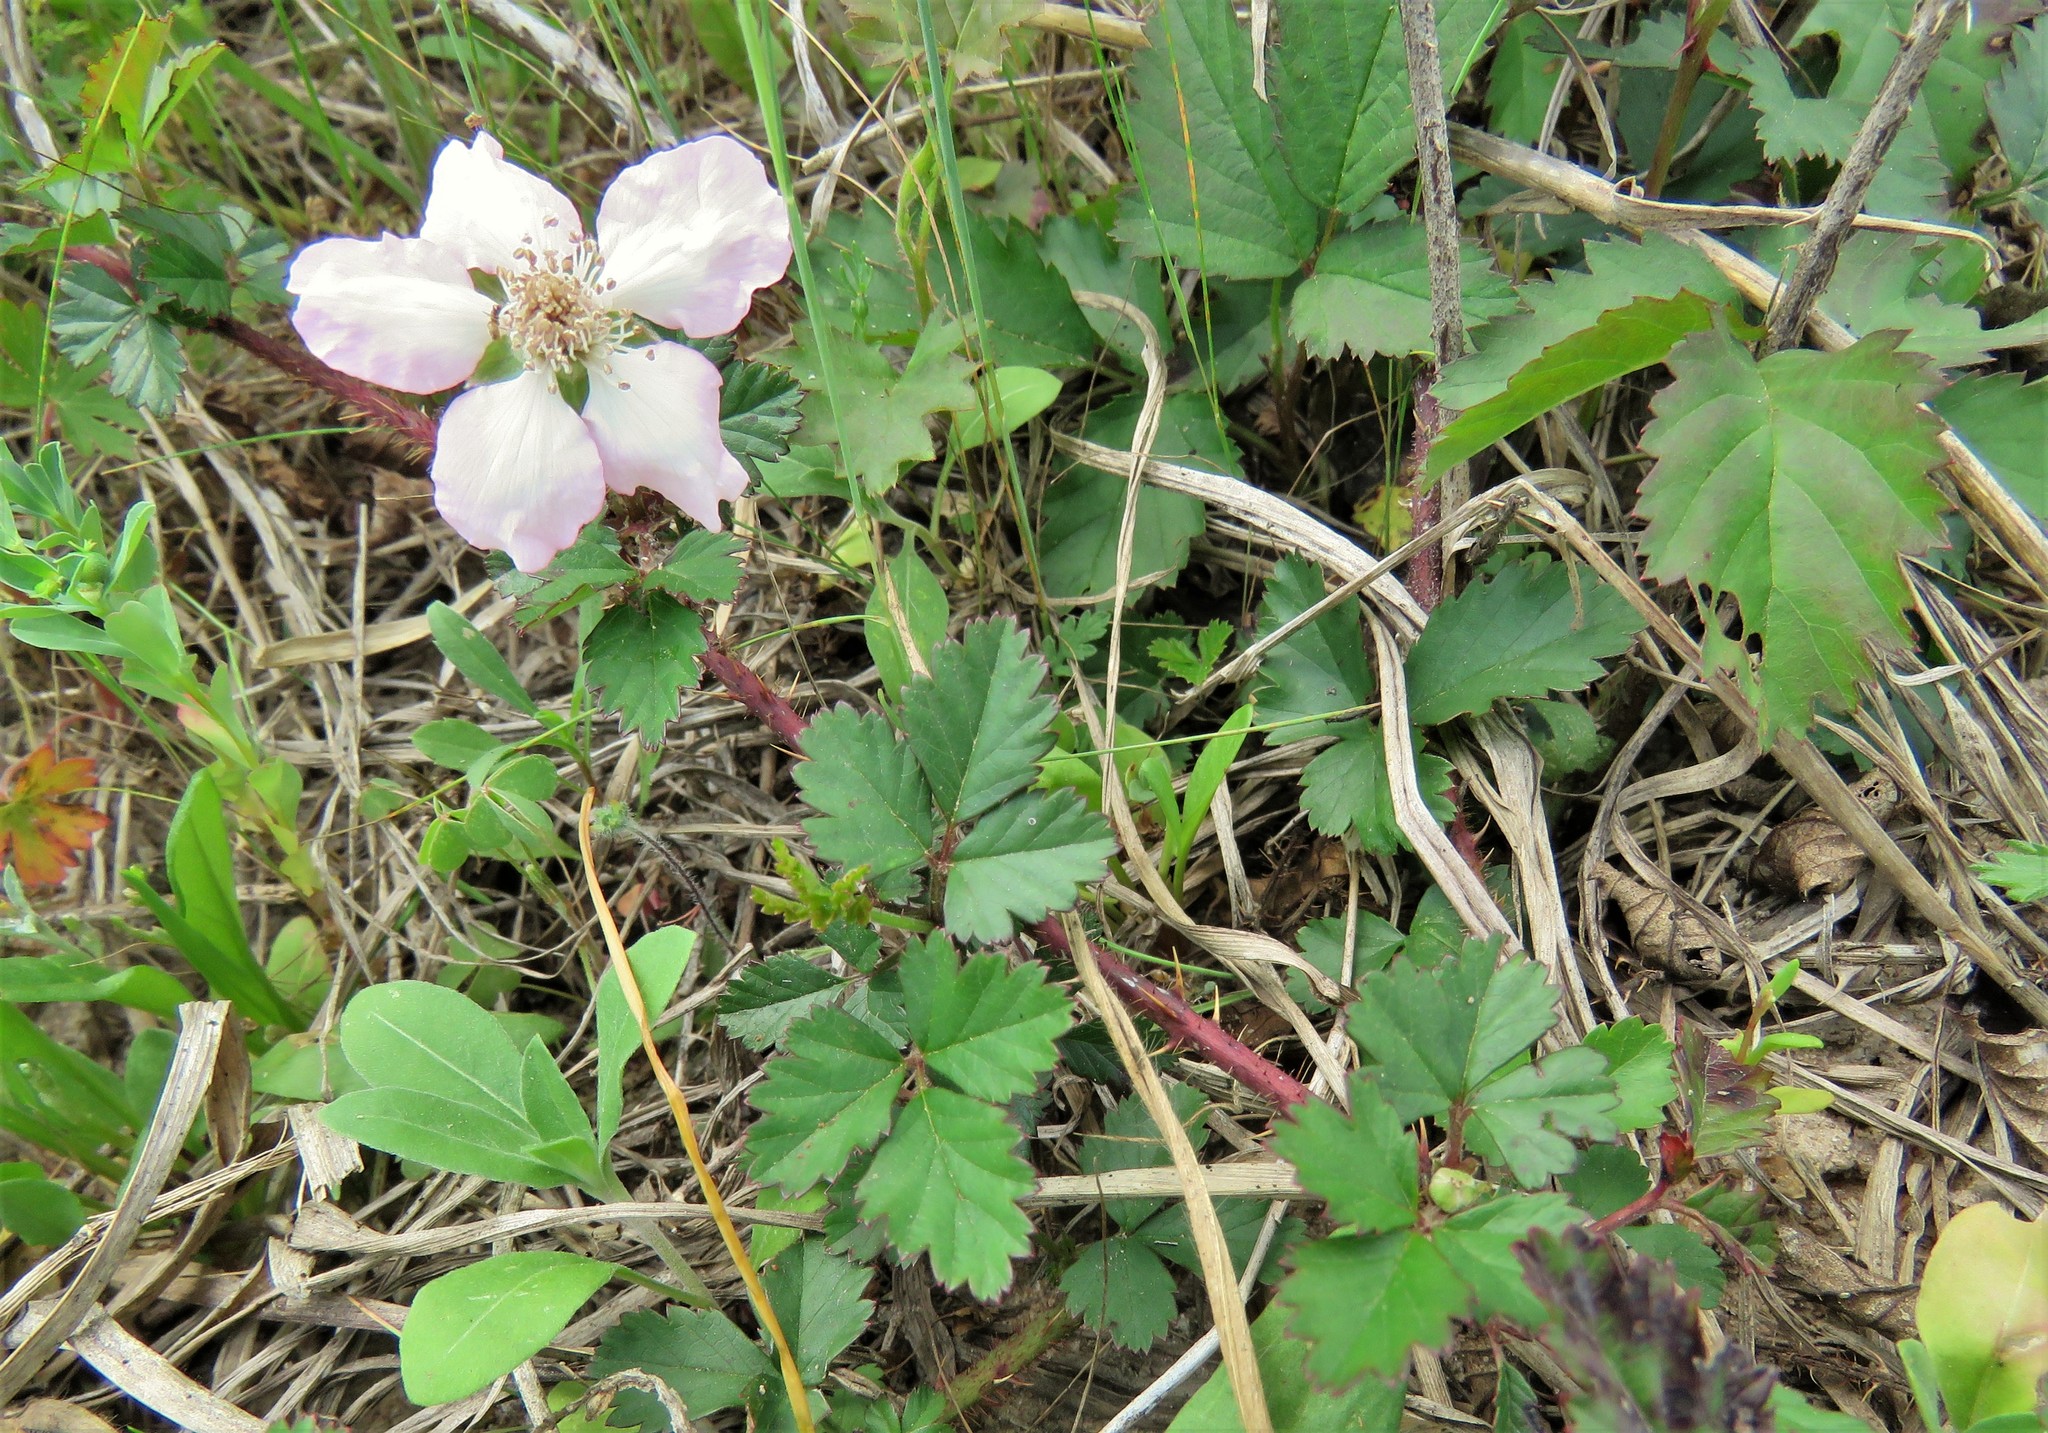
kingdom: Plantae
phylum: Tracheophyta
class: Magnoliopsida
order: Rosales
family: Rosaceae
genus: Rubus
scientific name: Rubus trivialis
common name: Southern dewberry
